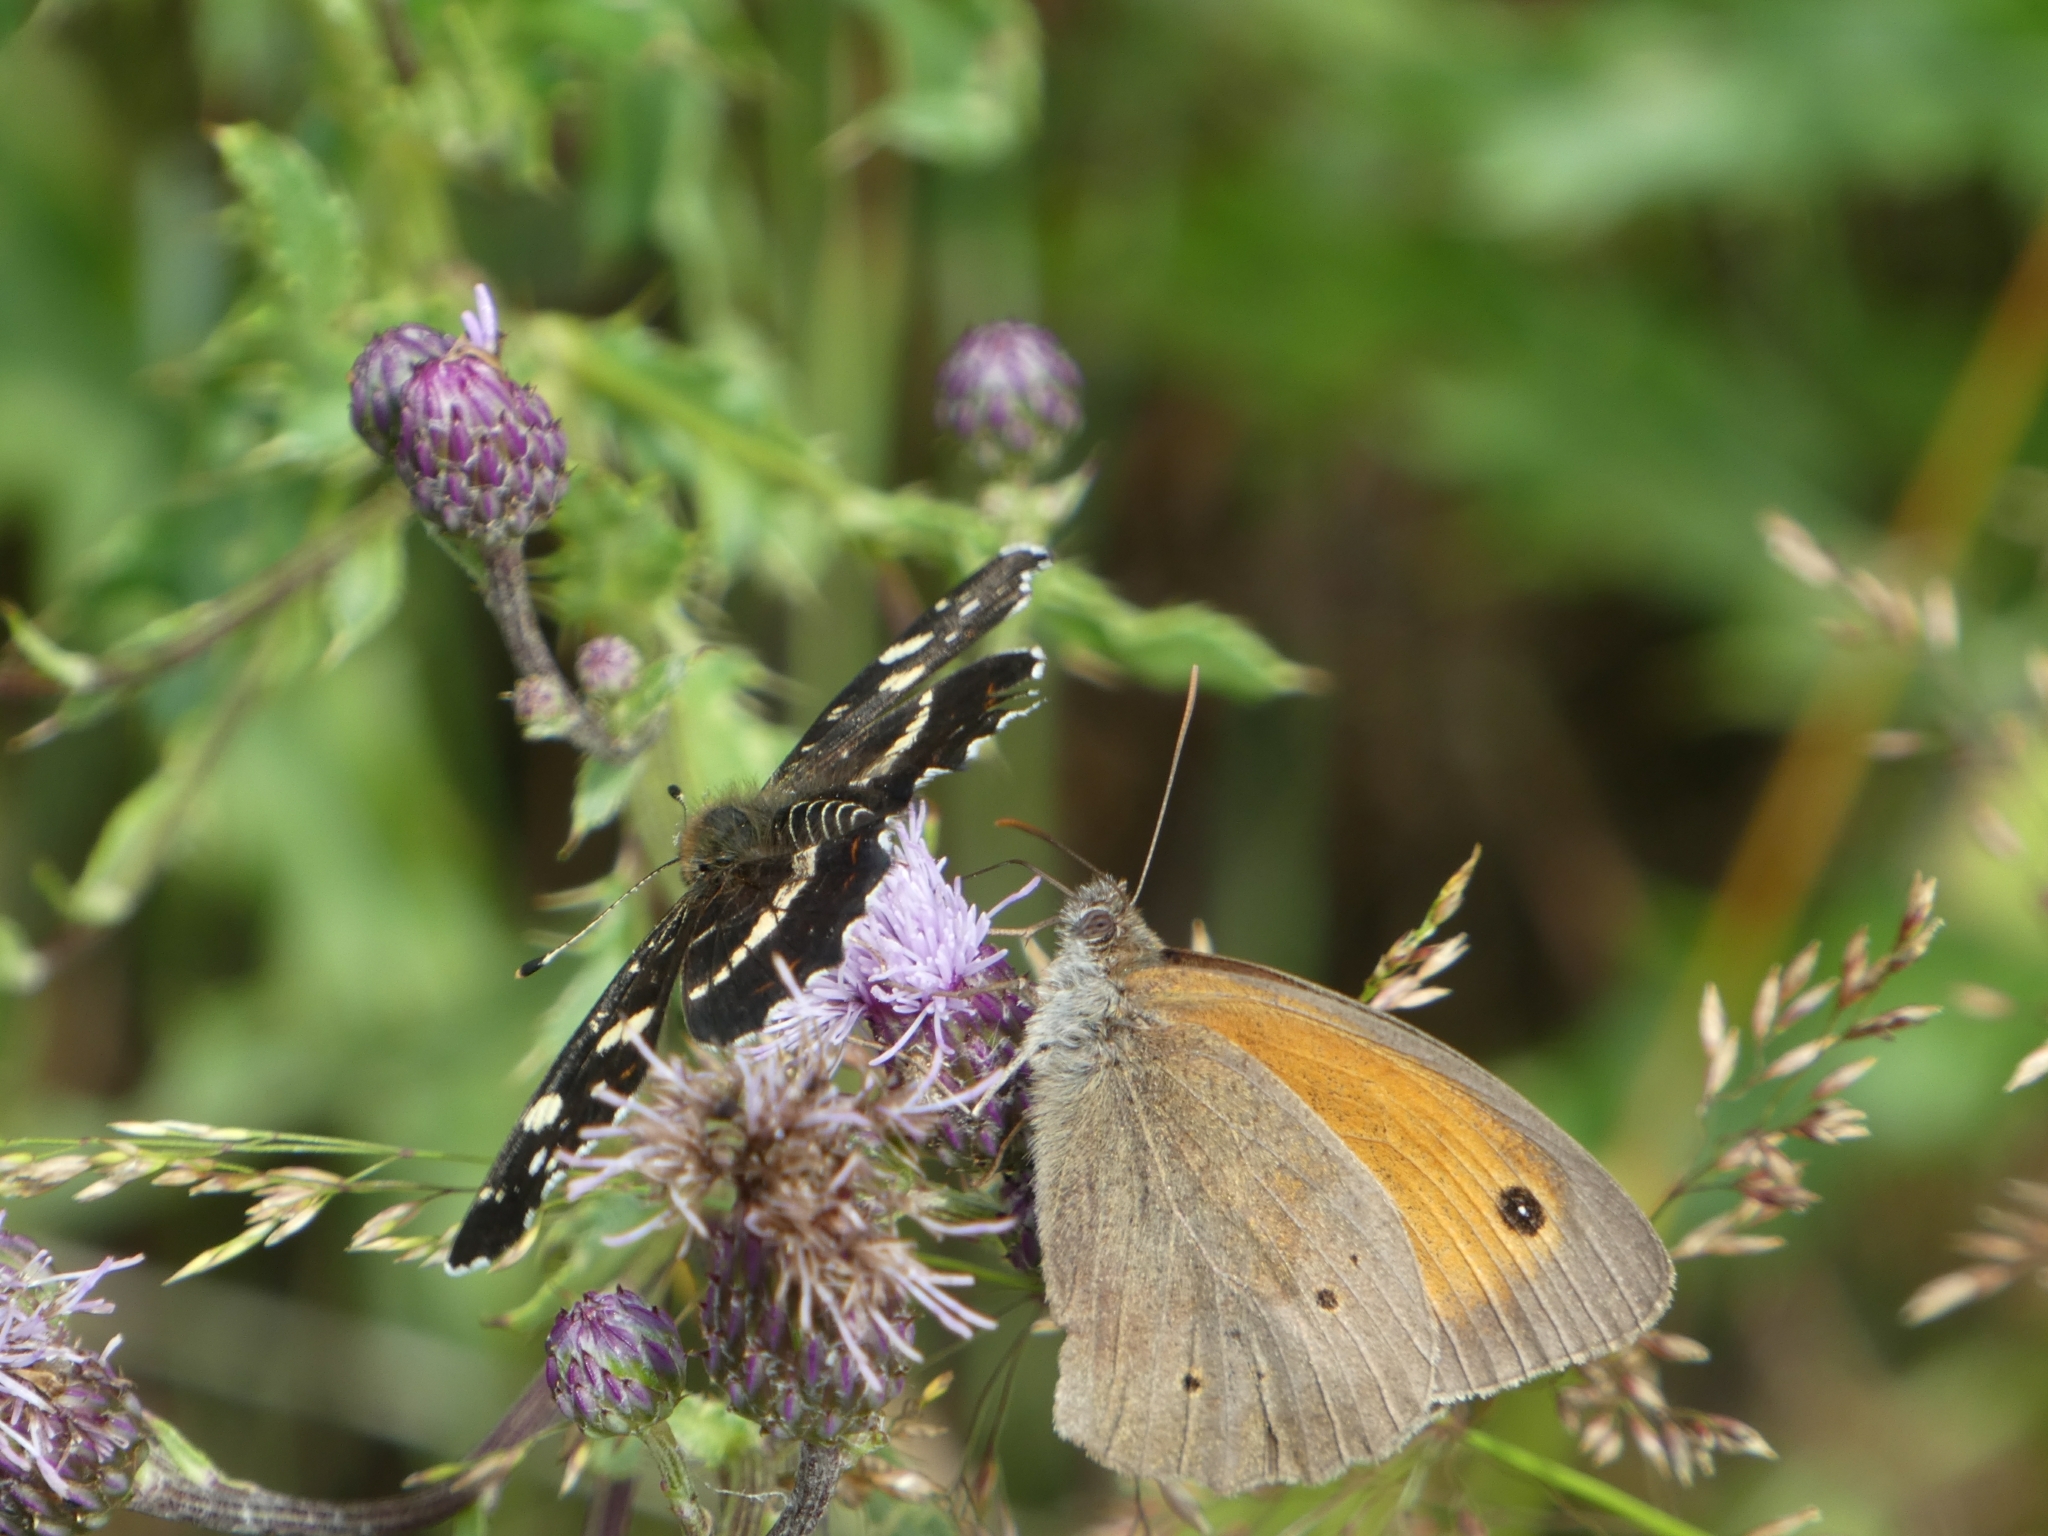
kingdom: Animalia
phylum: Arthropoda
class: Insecta
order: Lepidoptera
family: Nymphalidae
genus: Maniola
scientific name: Maniola jurtina
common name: Meadow brown
